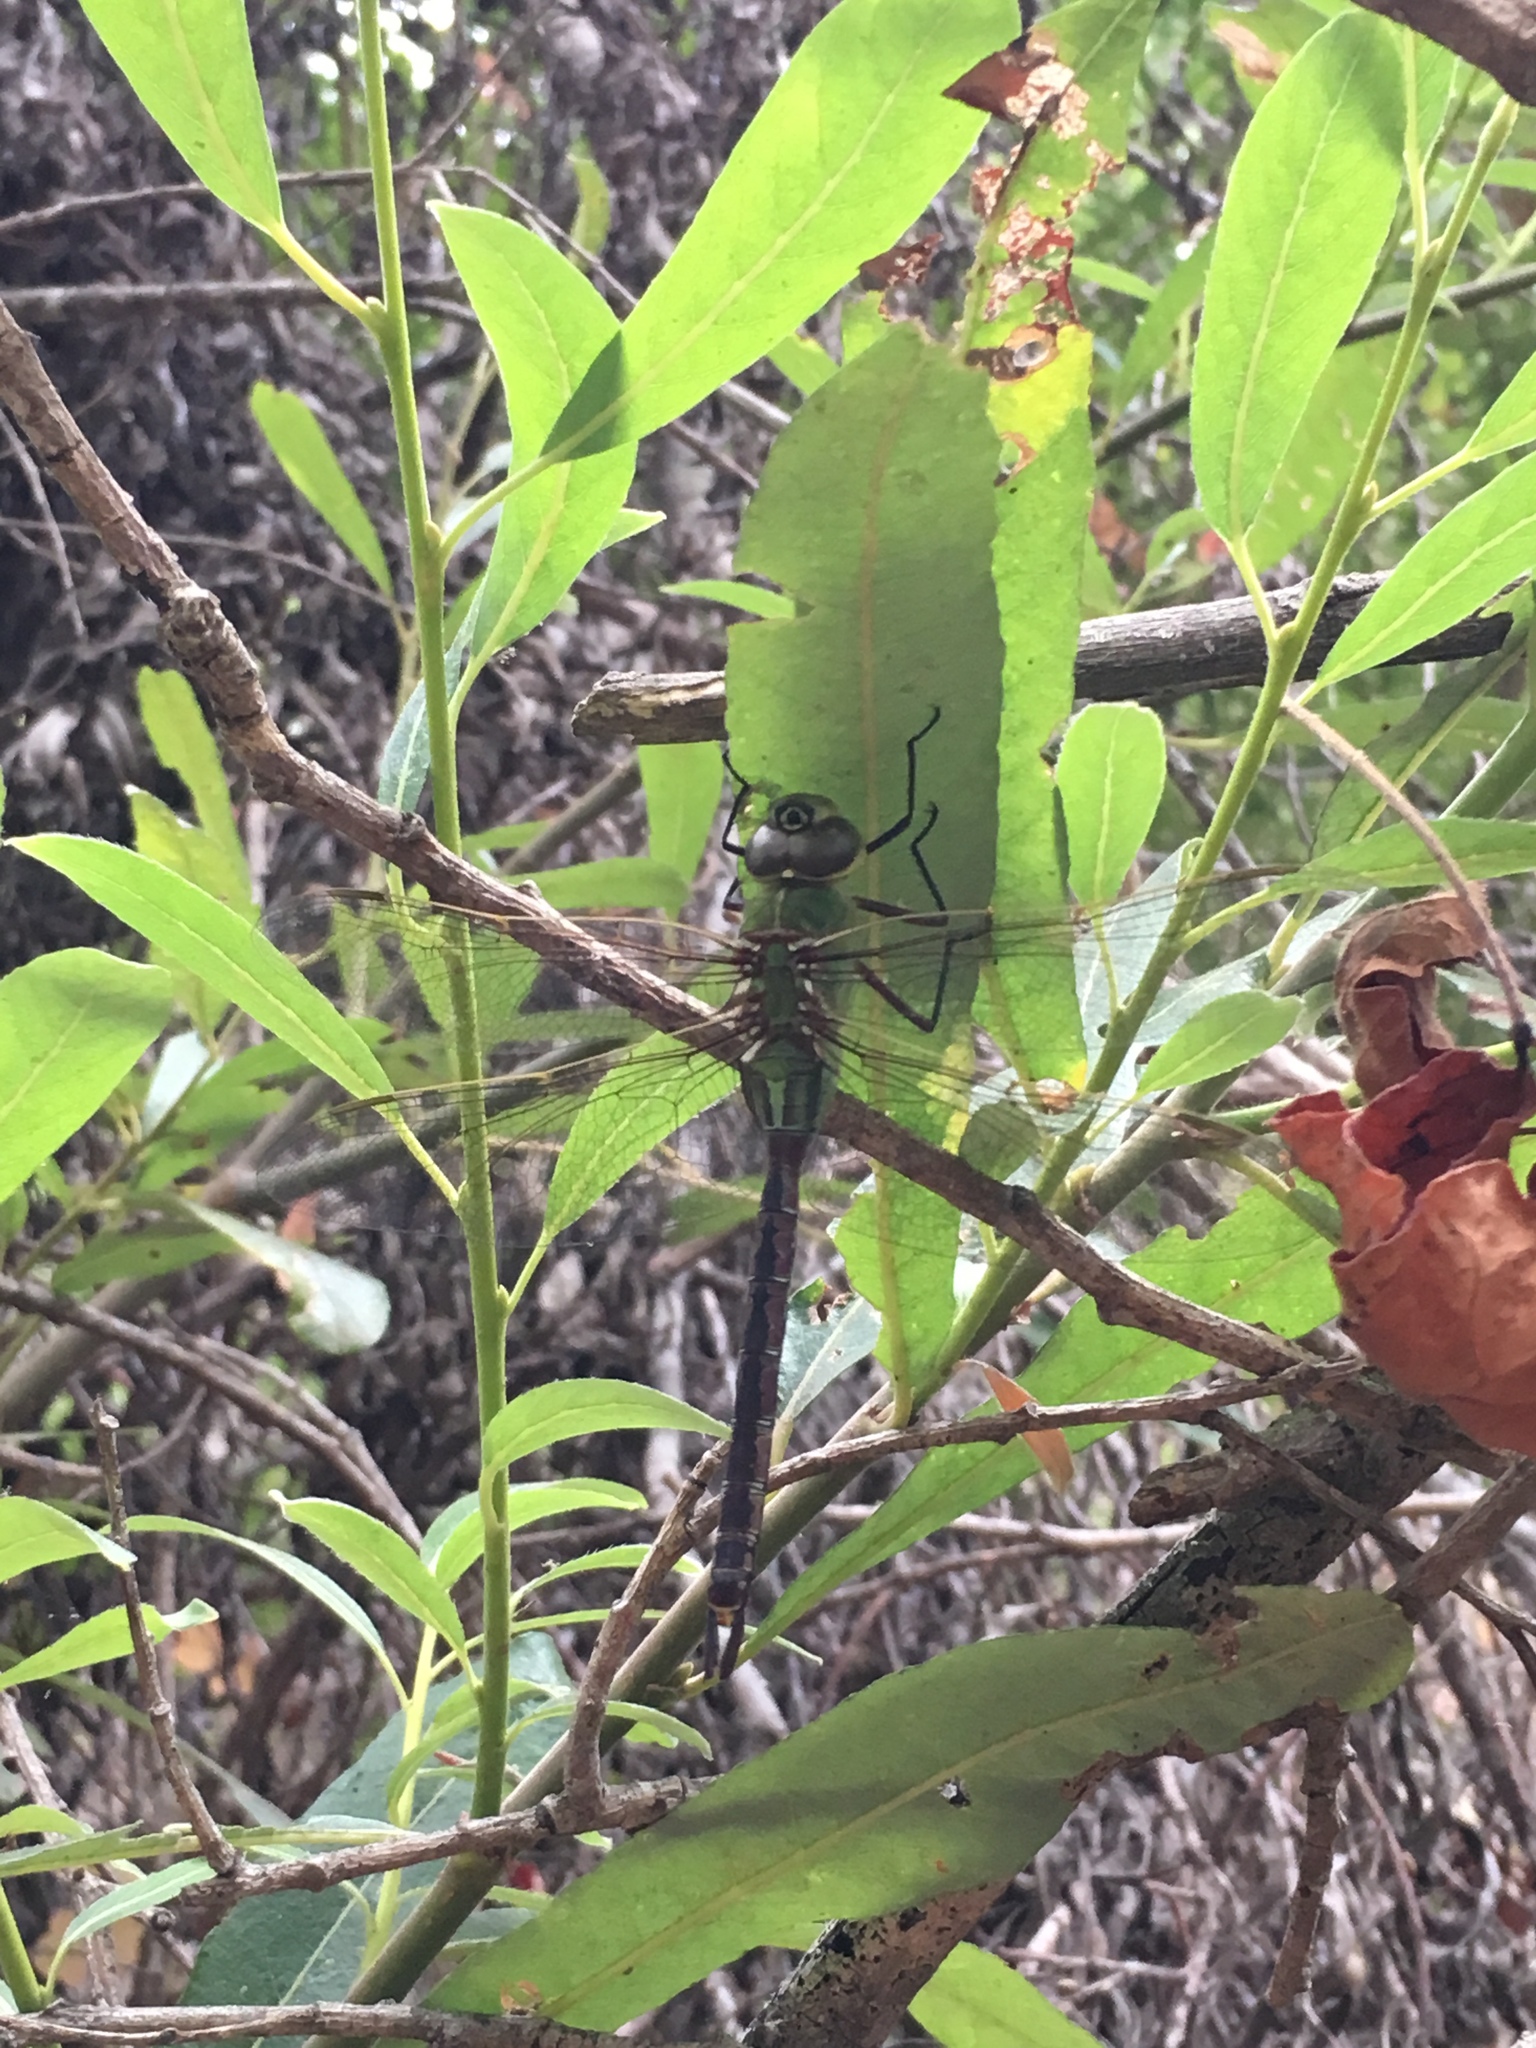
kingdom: Animalia
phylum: Arthropoda
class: Insecta
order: Odonata
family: Aeshnidae
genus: Anax
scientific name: Anax junius
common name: Common green darner
